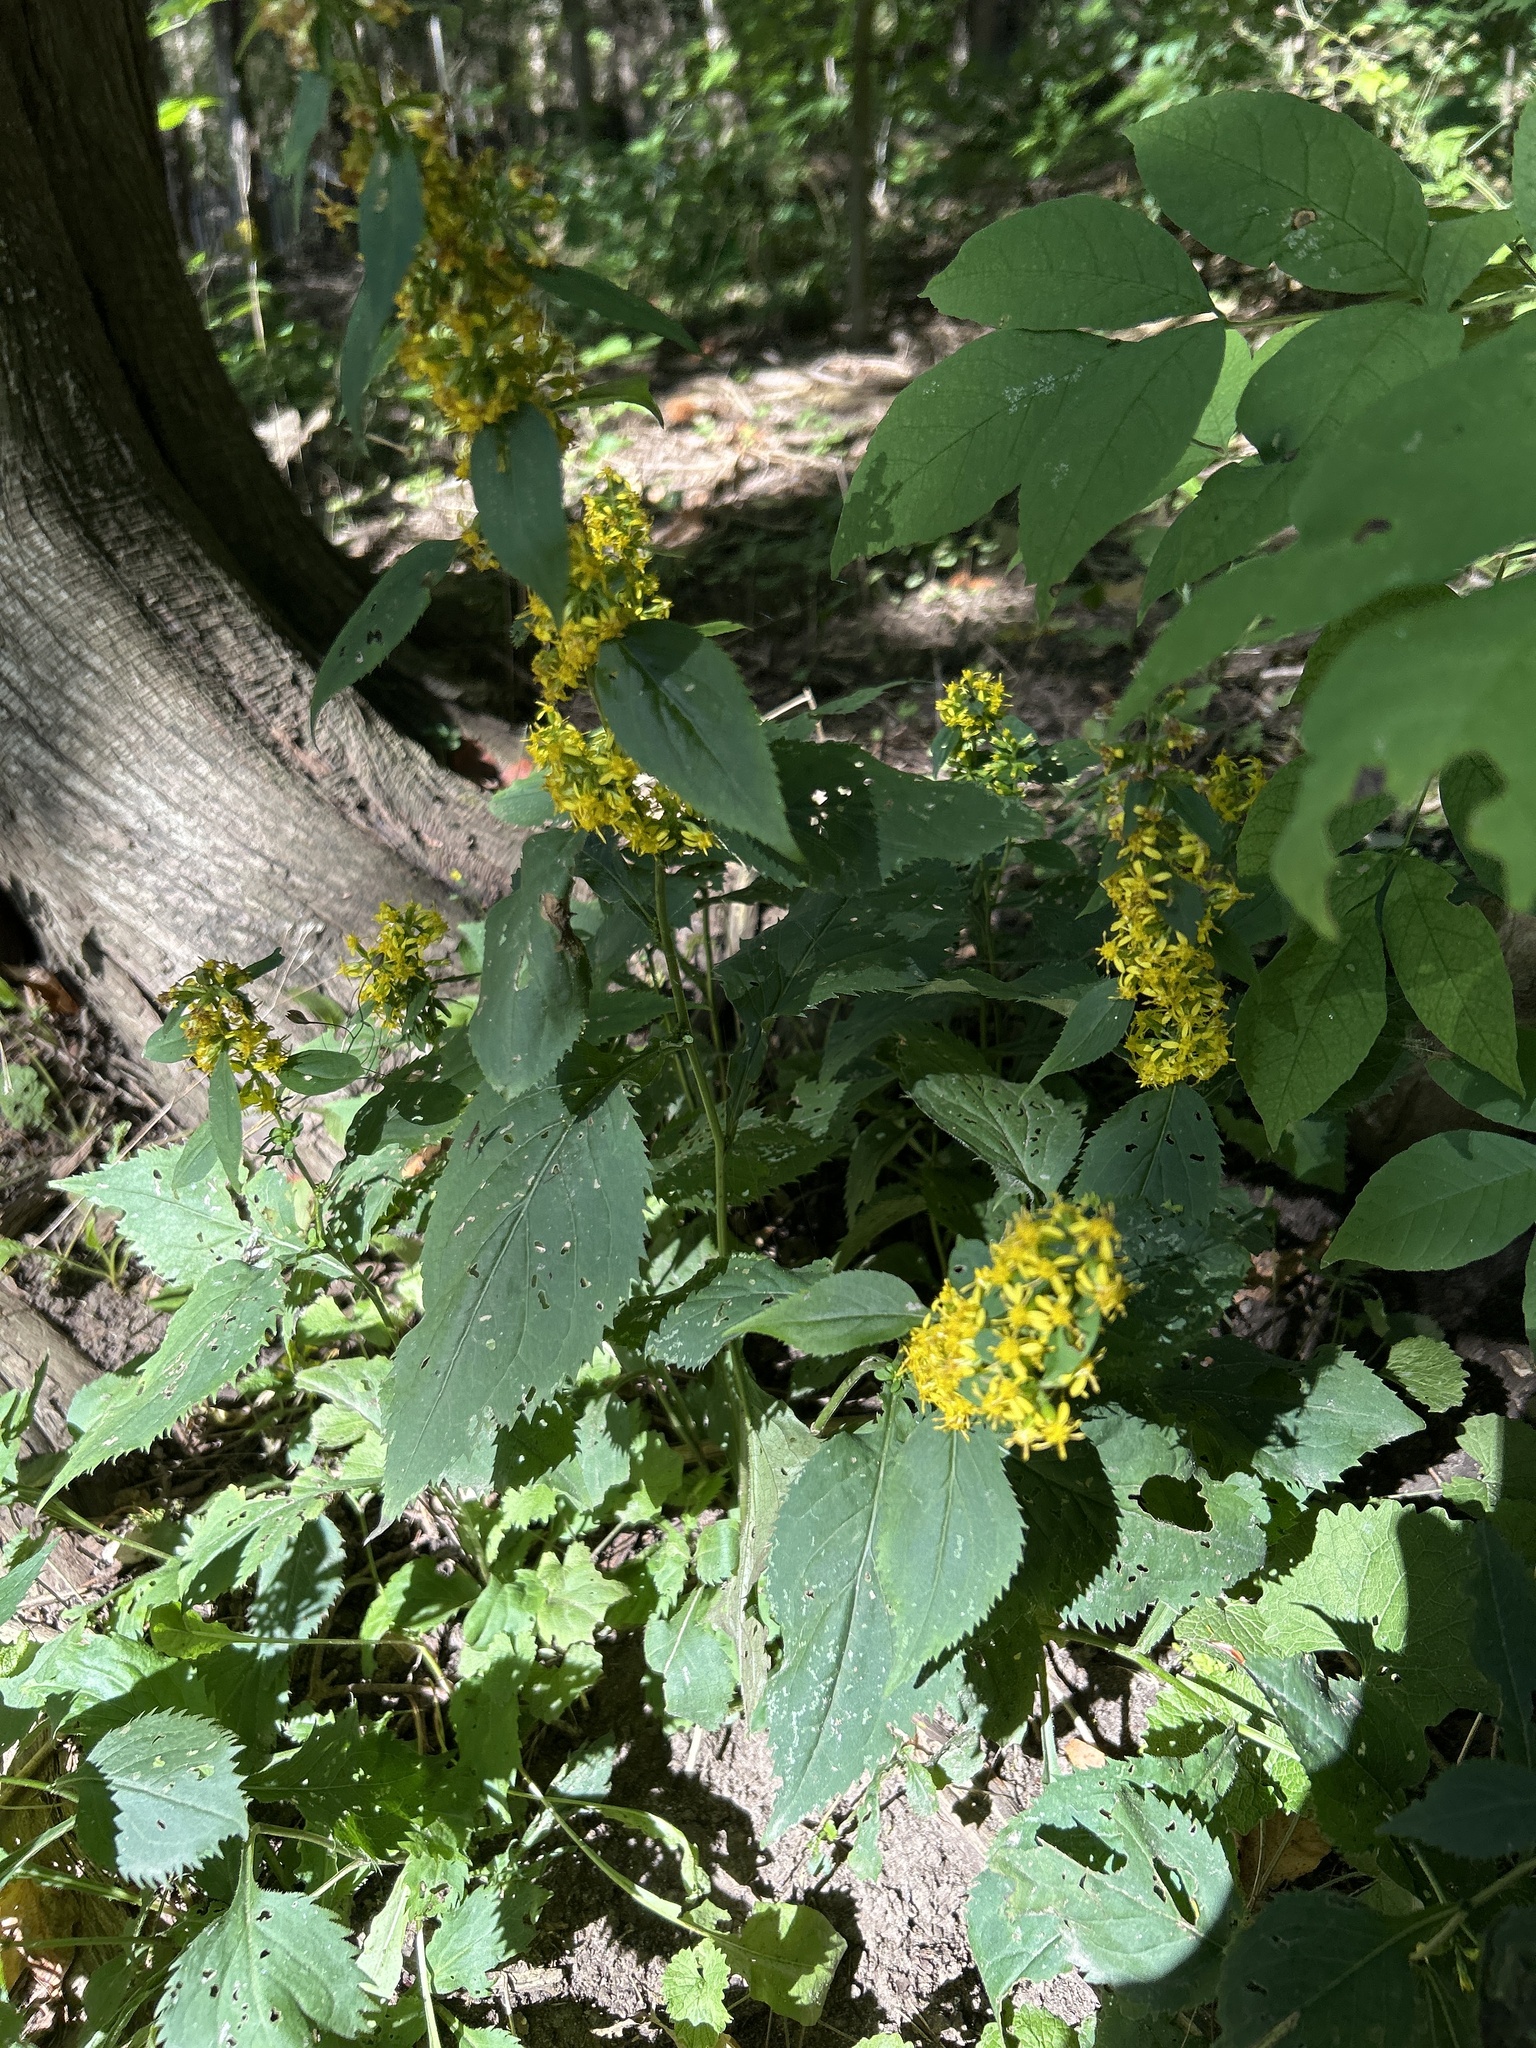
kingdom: Plantae
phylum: Tracheophyta
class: Magnoliopsida
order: Asterales
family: Asteraceae
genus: Solidago
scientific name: Solidago flexicaulis
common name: Zig-zag goldenrod
